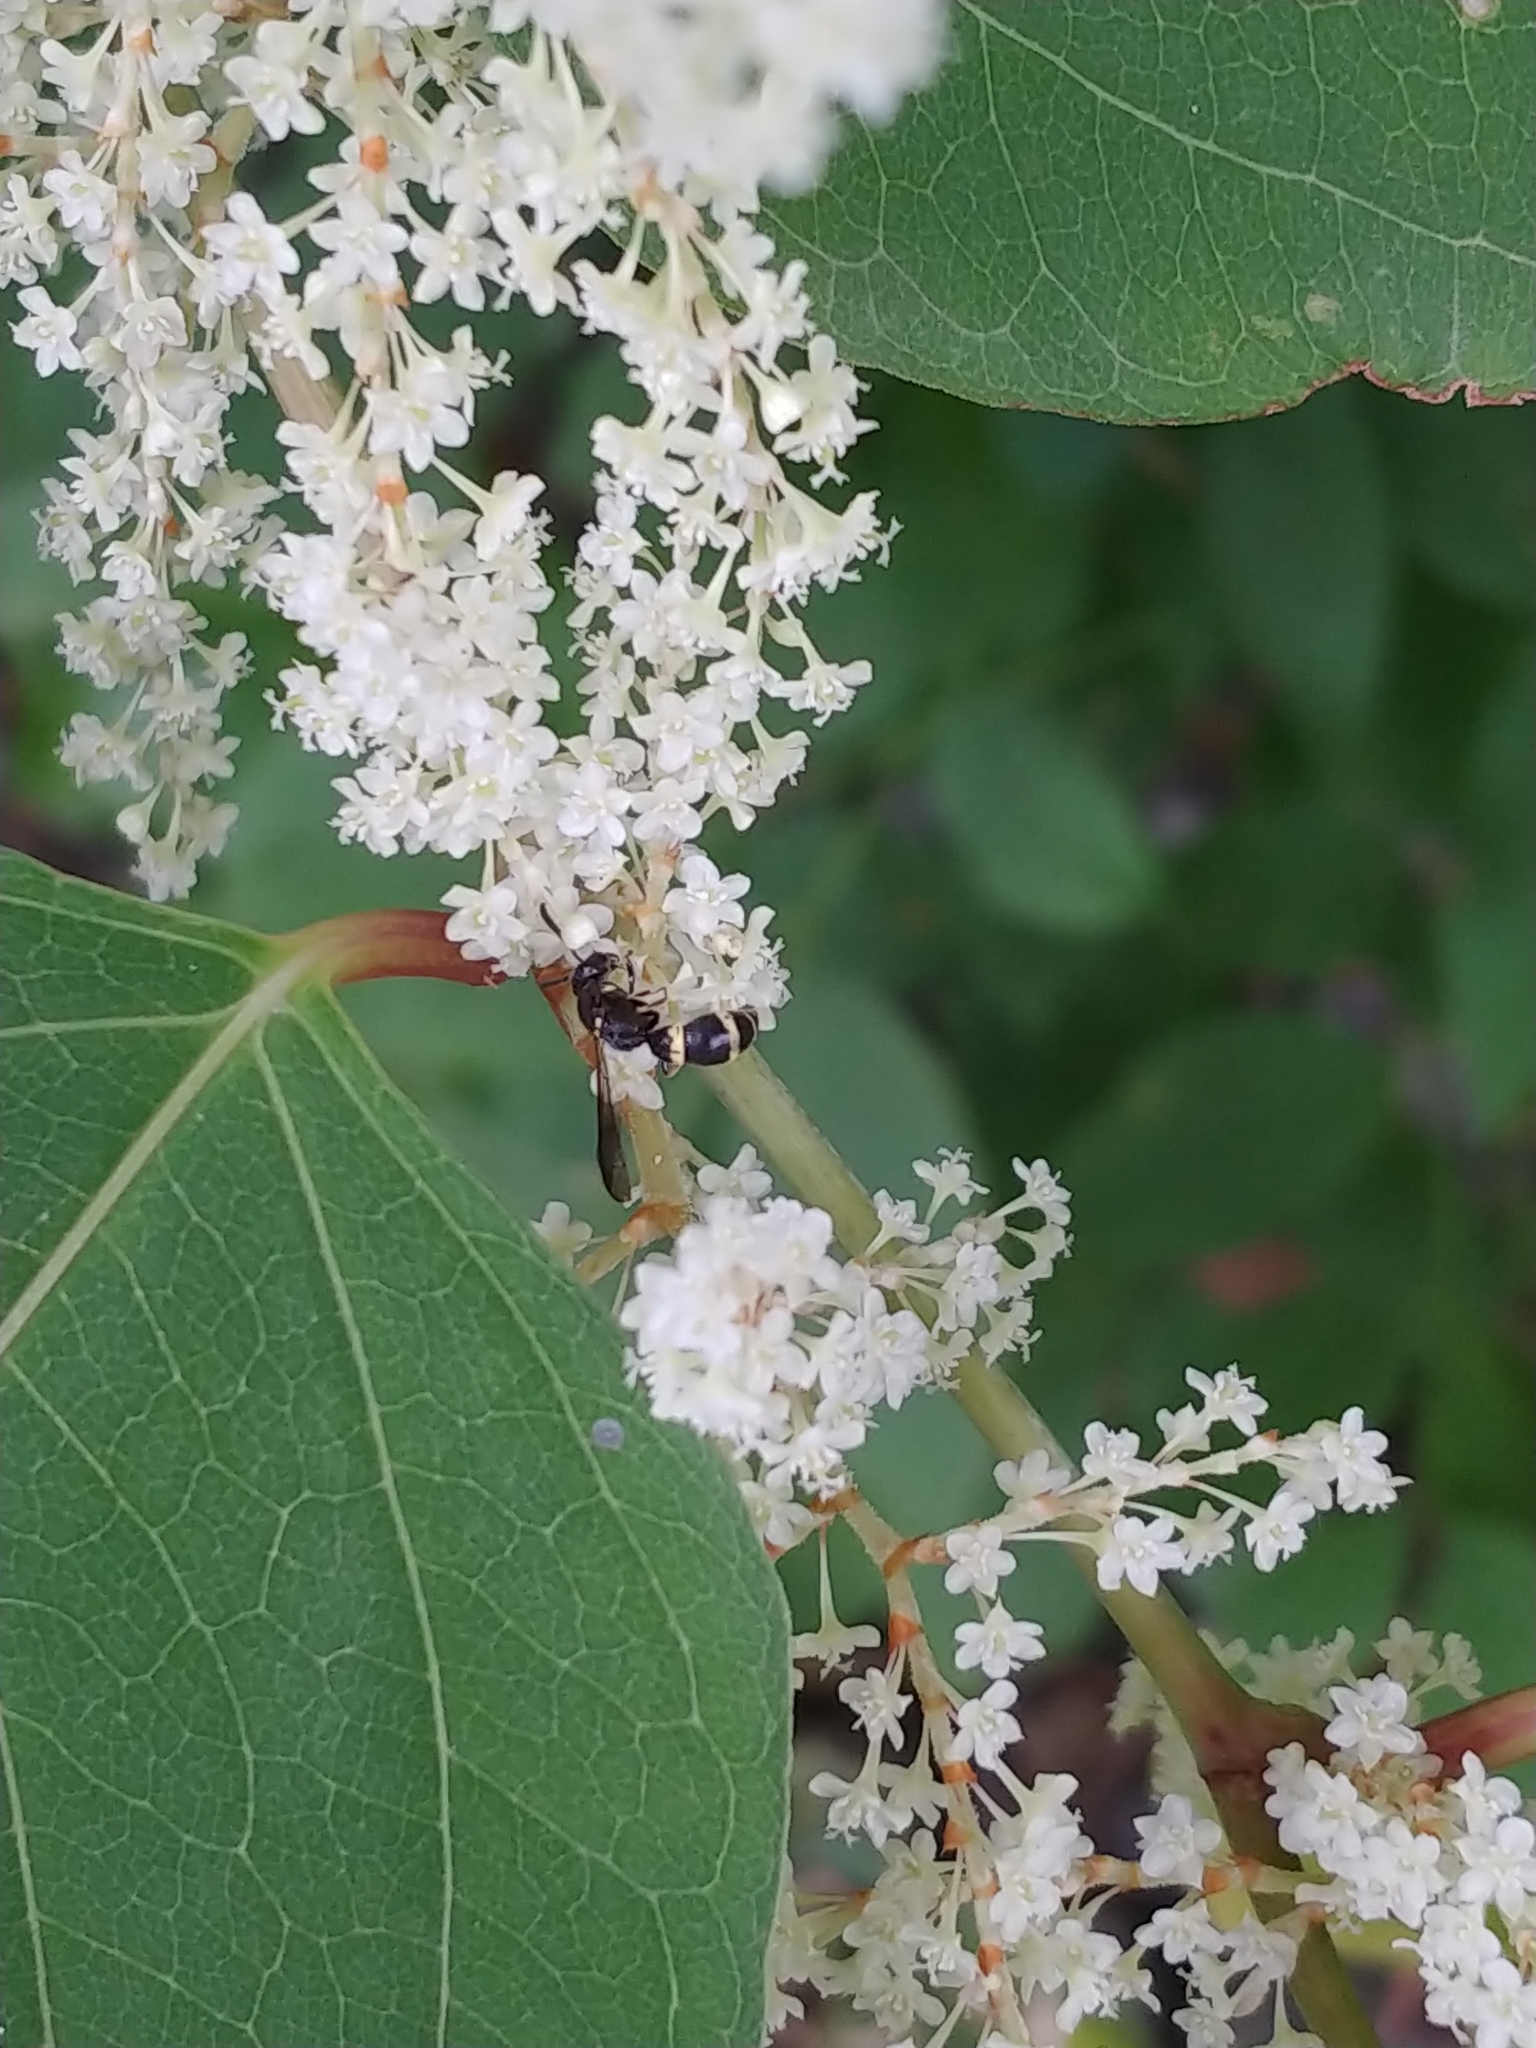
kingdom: Animalia
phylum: Arthropoda
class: Insecta
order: Hymenoptera
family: Eumenidae
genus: Symmorphus
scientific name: Symmorphus albomarginatus
